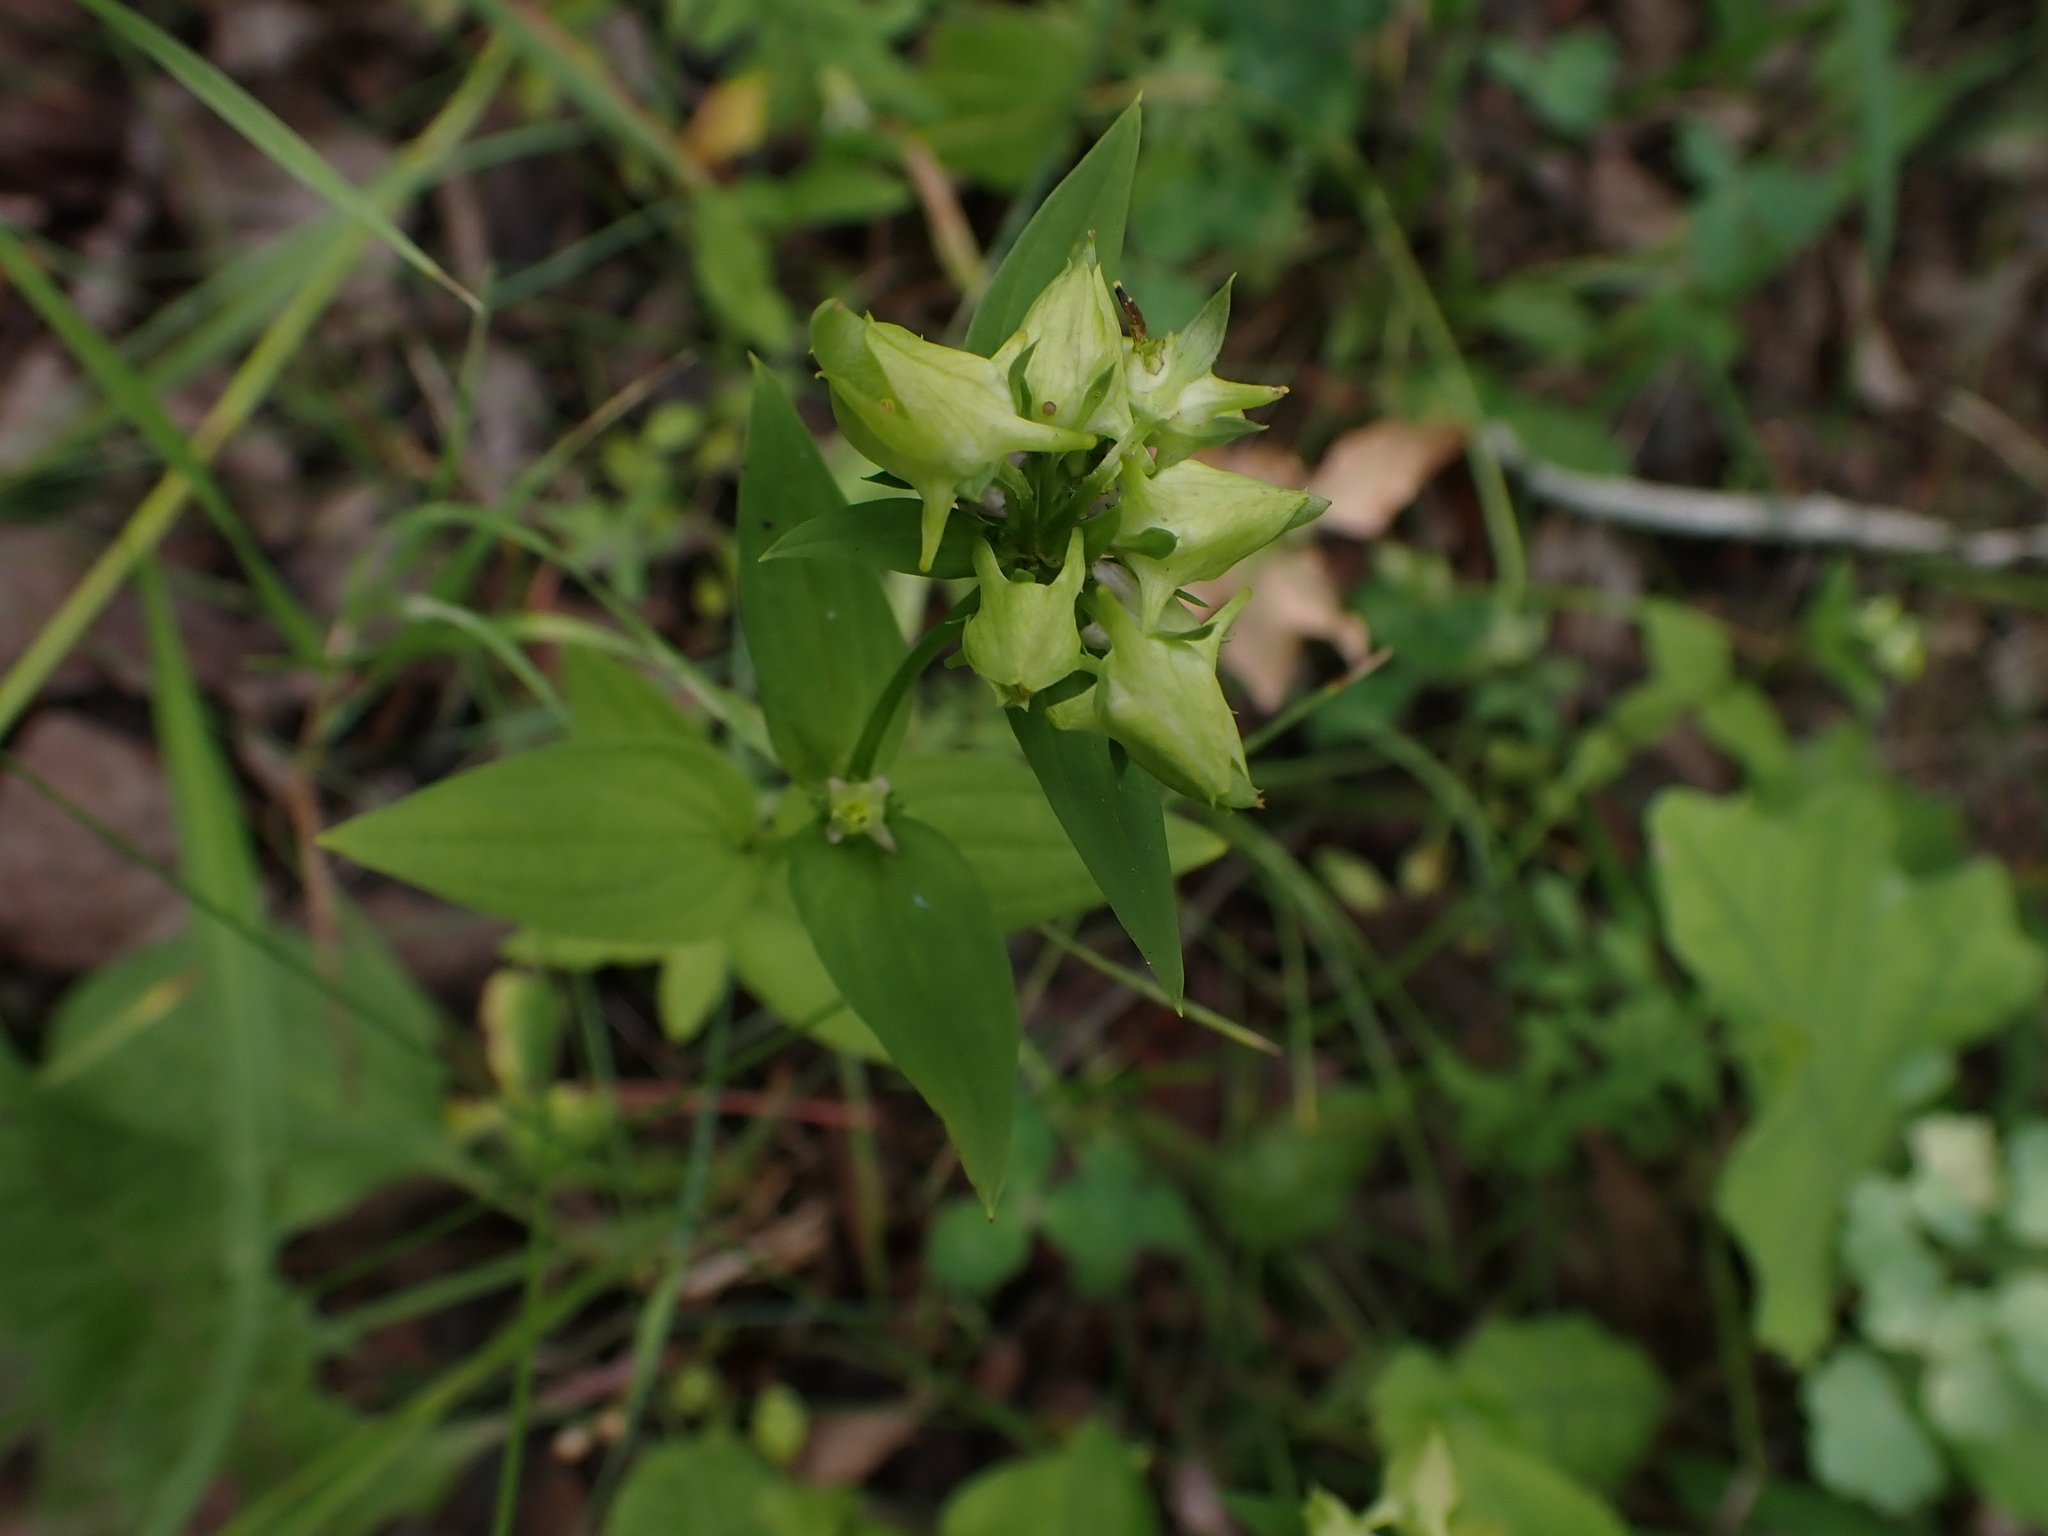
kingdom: Plantae
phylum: Tracheophyta
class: Magnoliopsida
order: Gentianales
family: Gentianaceae
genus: Halenia
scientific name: Halenia deflexa
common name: American spurred gentian
